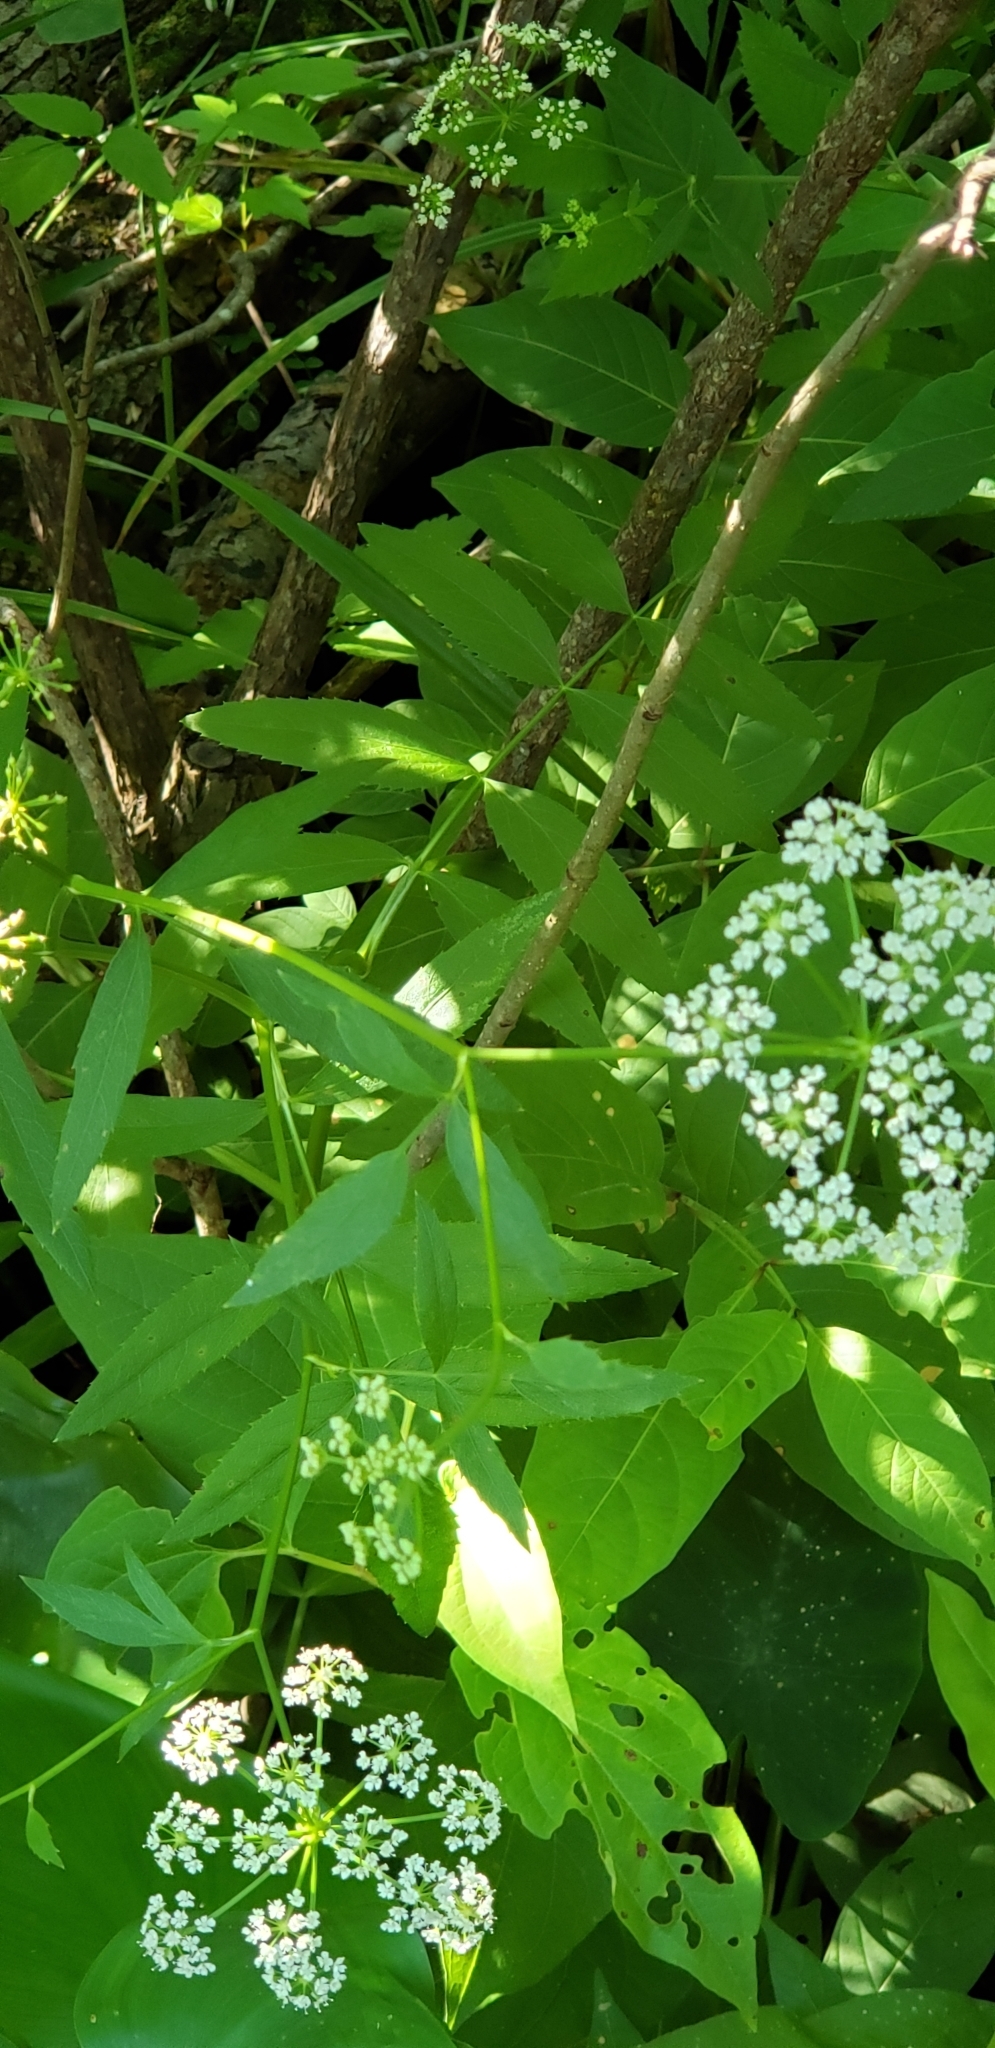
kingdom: Plantae
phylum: Tracheophyta
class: Magnoliopsida
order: Apiales
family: Apiaceae
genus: Ptilimnium
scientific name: Ptilimnium capillaceum
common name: Herbwilliam
